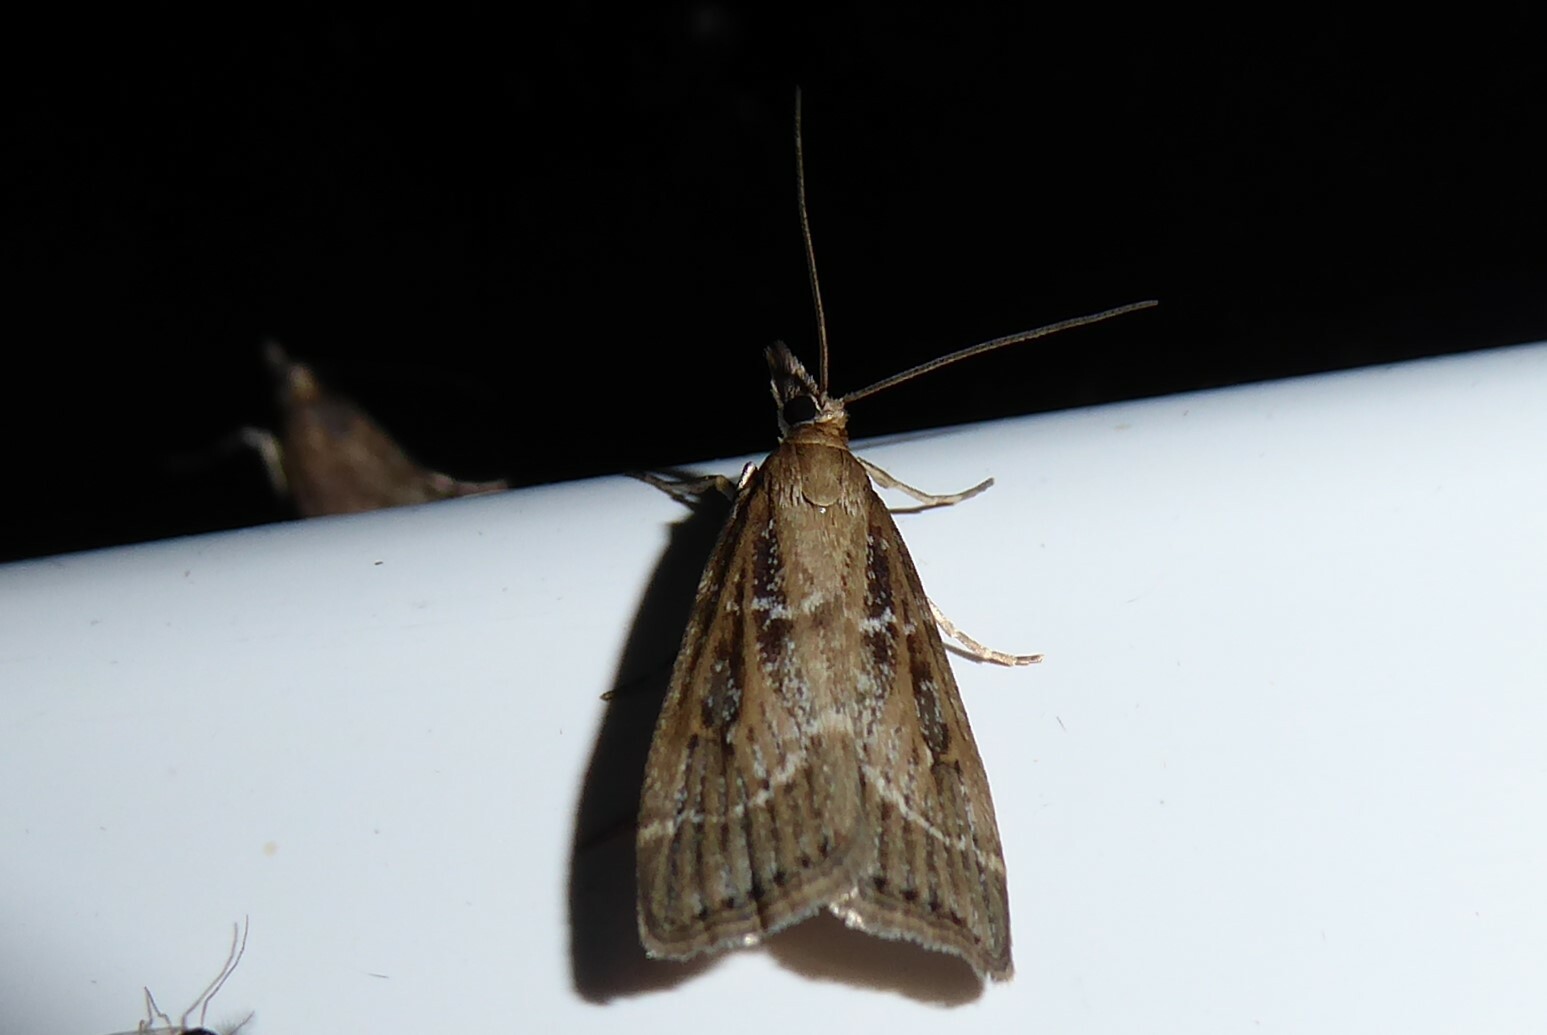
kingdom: Animalia
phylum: Arthropoda
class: Insecta
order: Lepidoptera
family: Crambidae
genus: Eudonia
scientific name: Eudonia octophora
